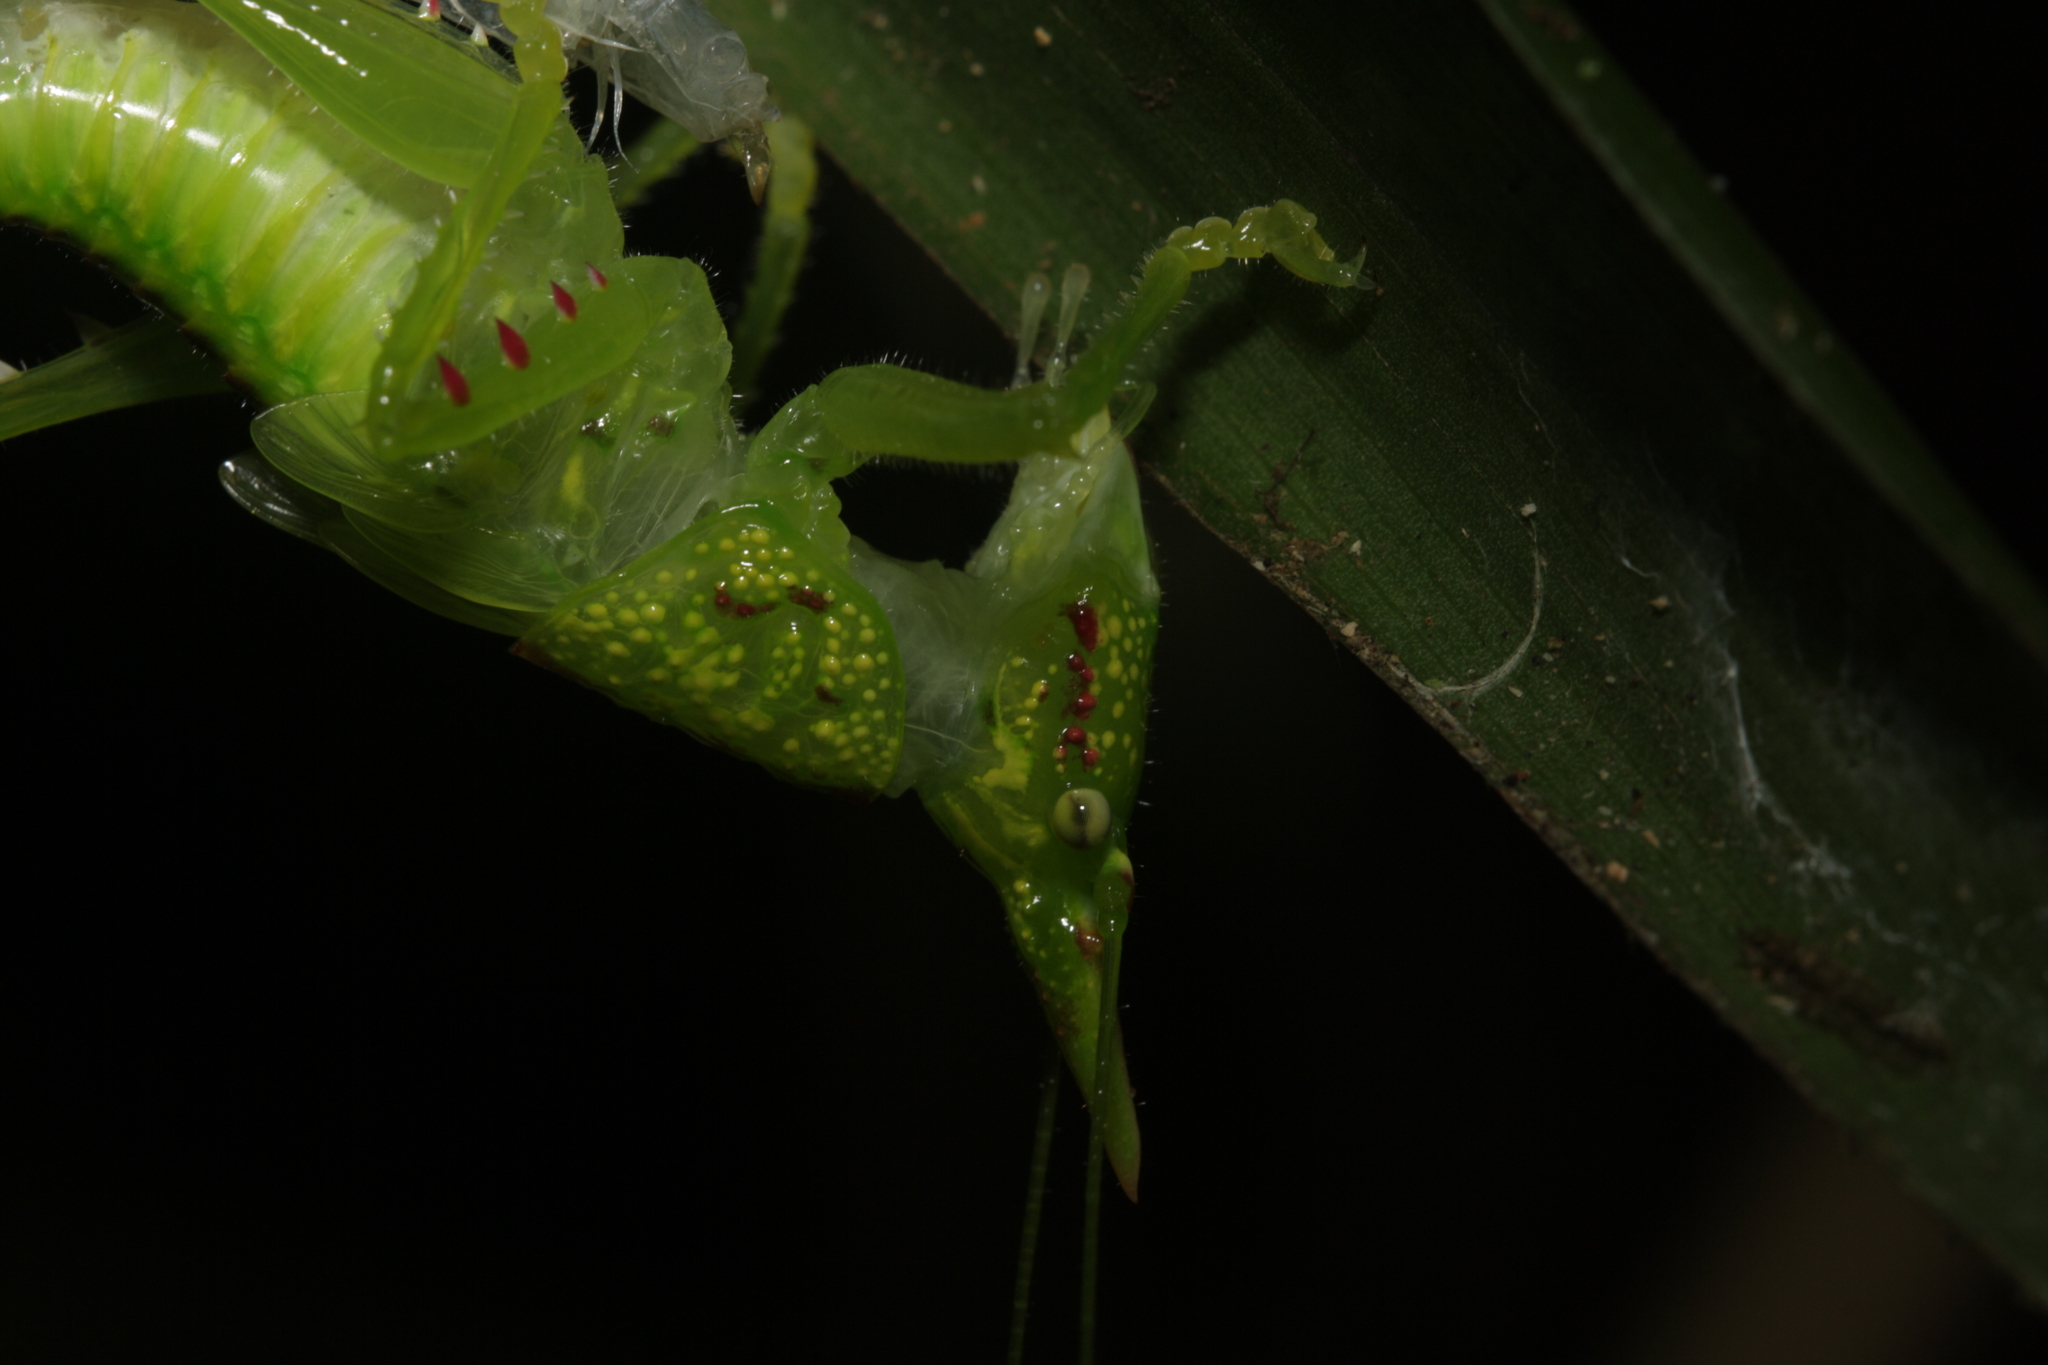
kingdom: Animalia
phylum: Arthropoda
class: Insecta
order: Orthoptera
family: Tettigoniidae
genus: Copiphora
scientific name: Copiphora rhinoceros
